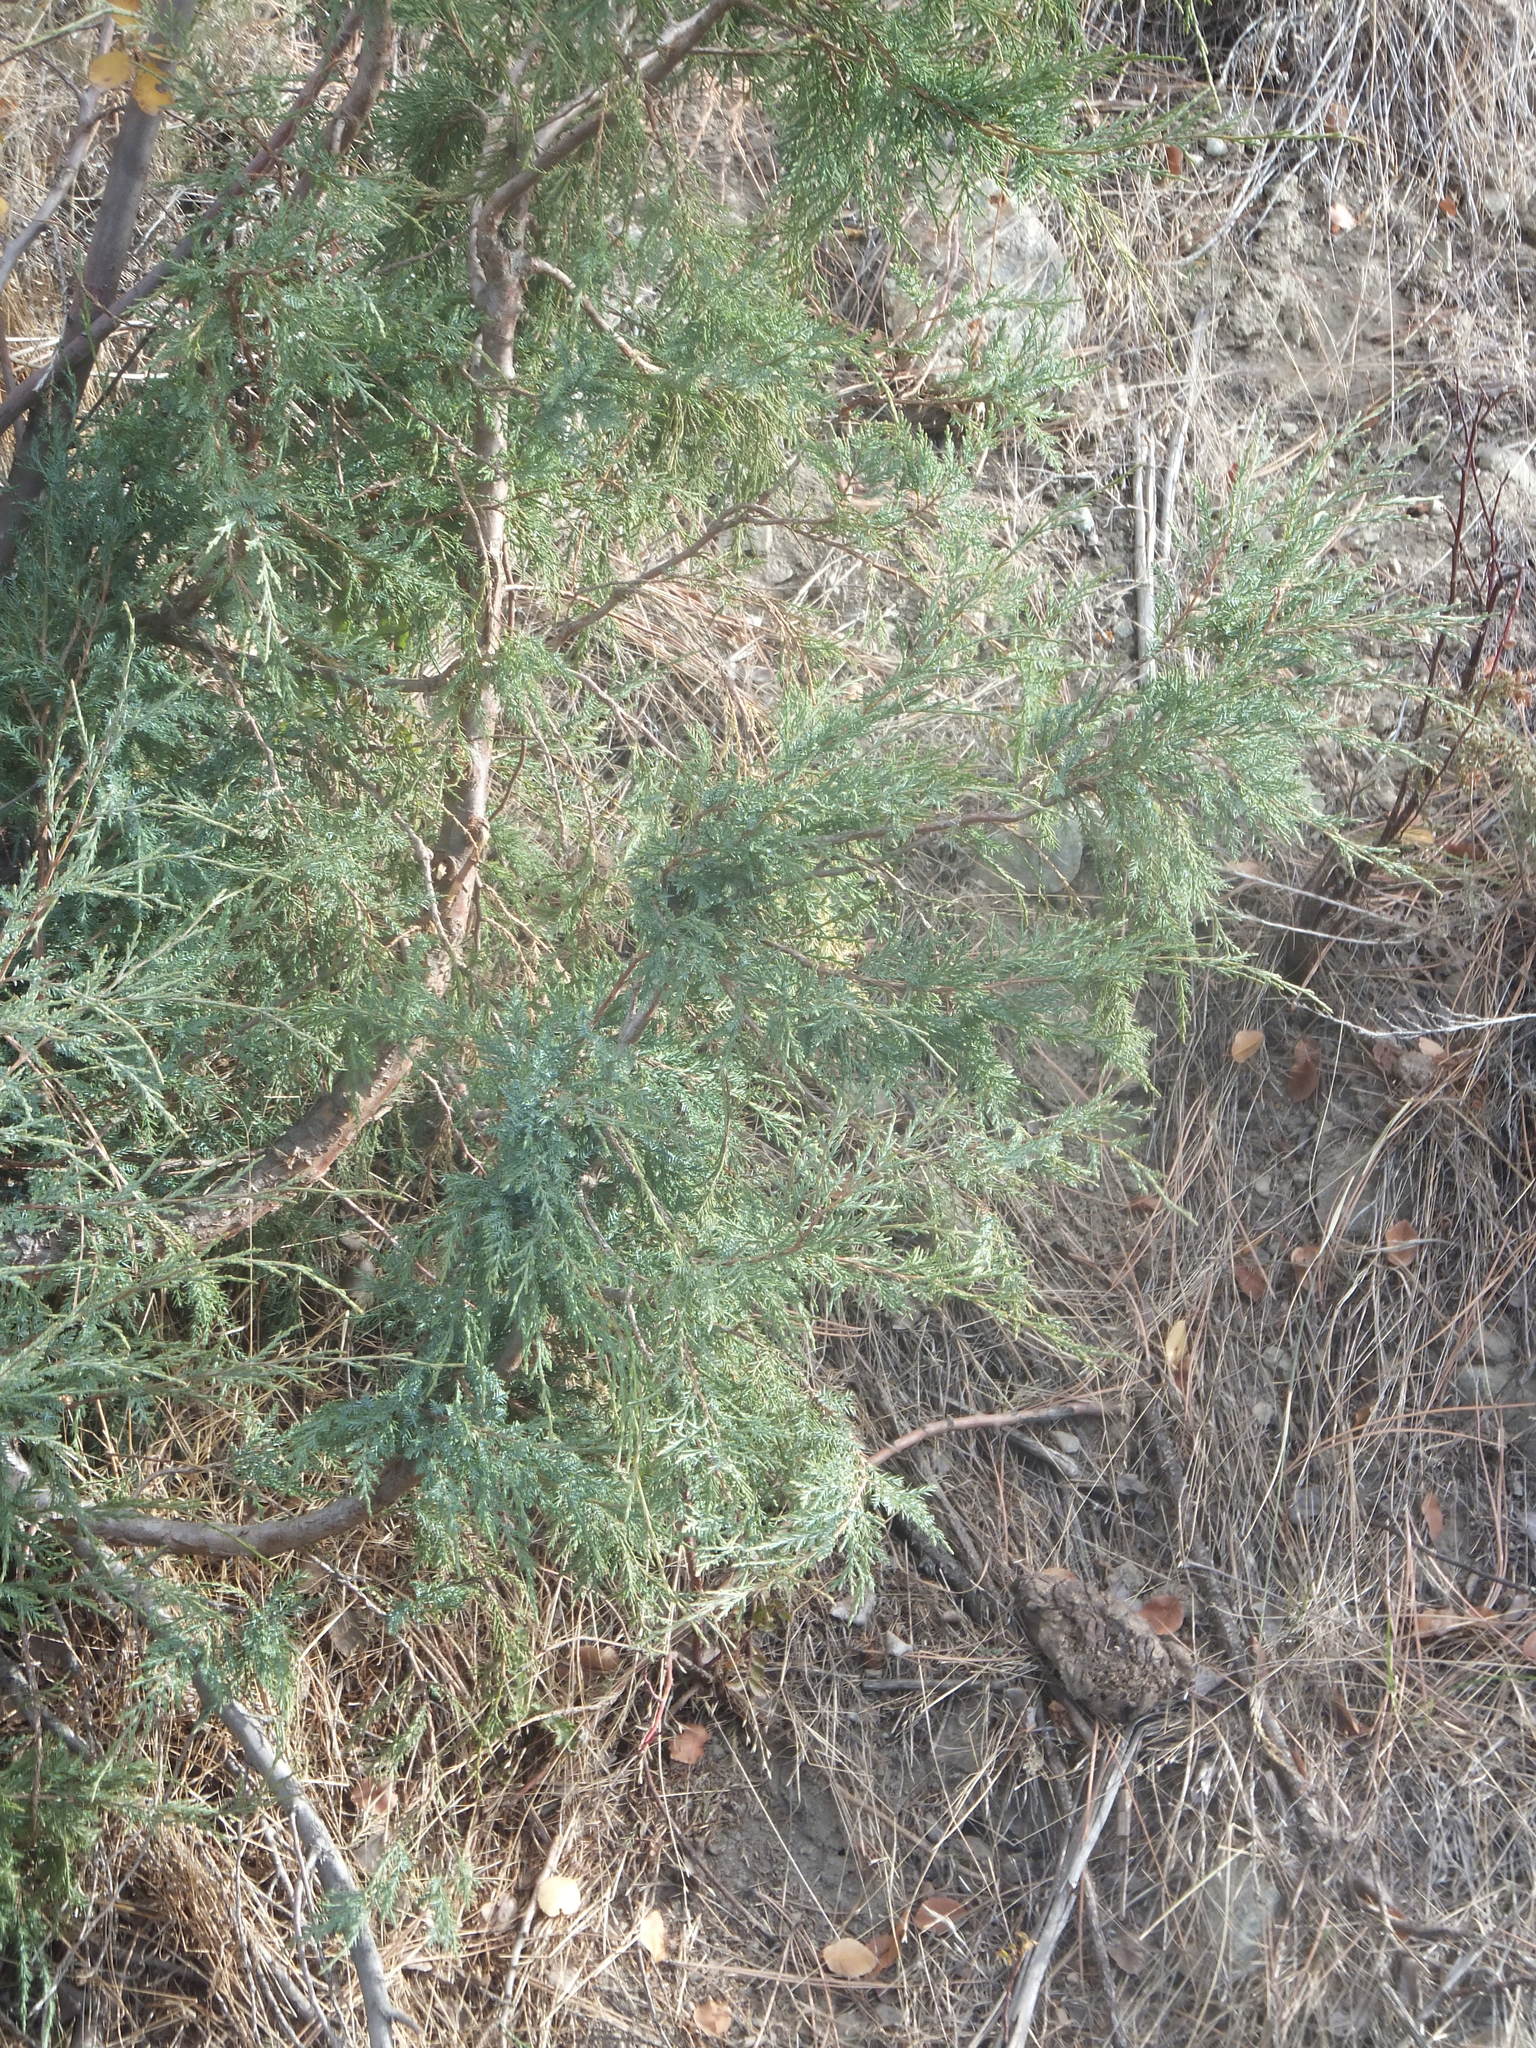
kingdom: Plantae
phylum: Tracheophyta
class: Pinopsida
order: Pinales
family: Cupressaceae
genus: Juniperus
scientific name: Juniperus scopulorum
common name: Rocky mountain juniper
